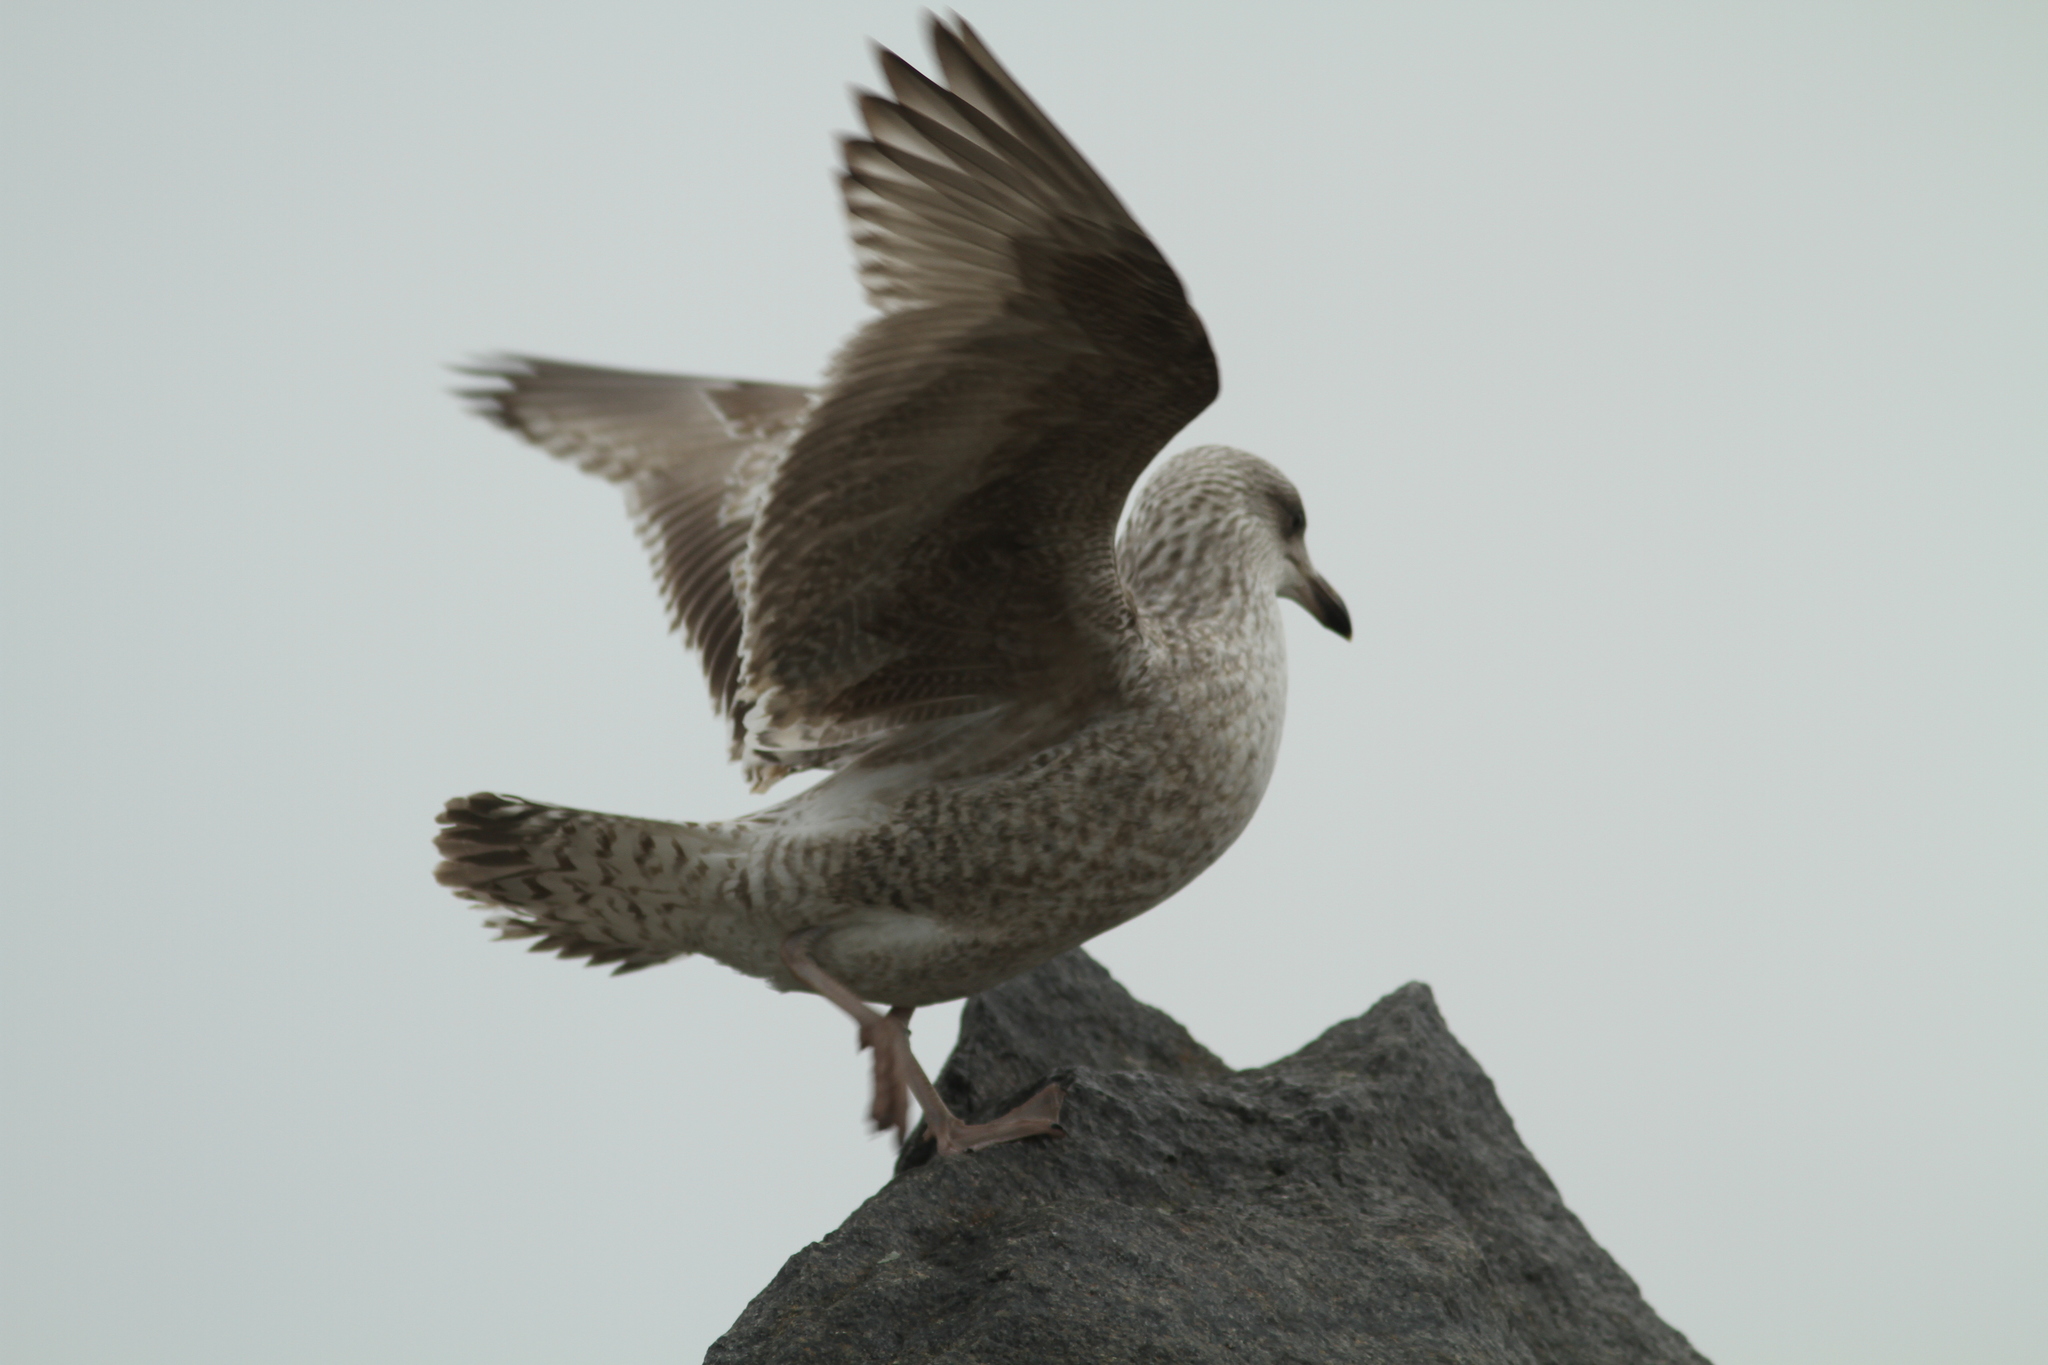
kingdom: Animalia
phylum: Chordata
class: Aves
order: Charadriiformes
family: Laridae
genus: Larus
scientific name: Larus argentatus
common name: Herring gull
